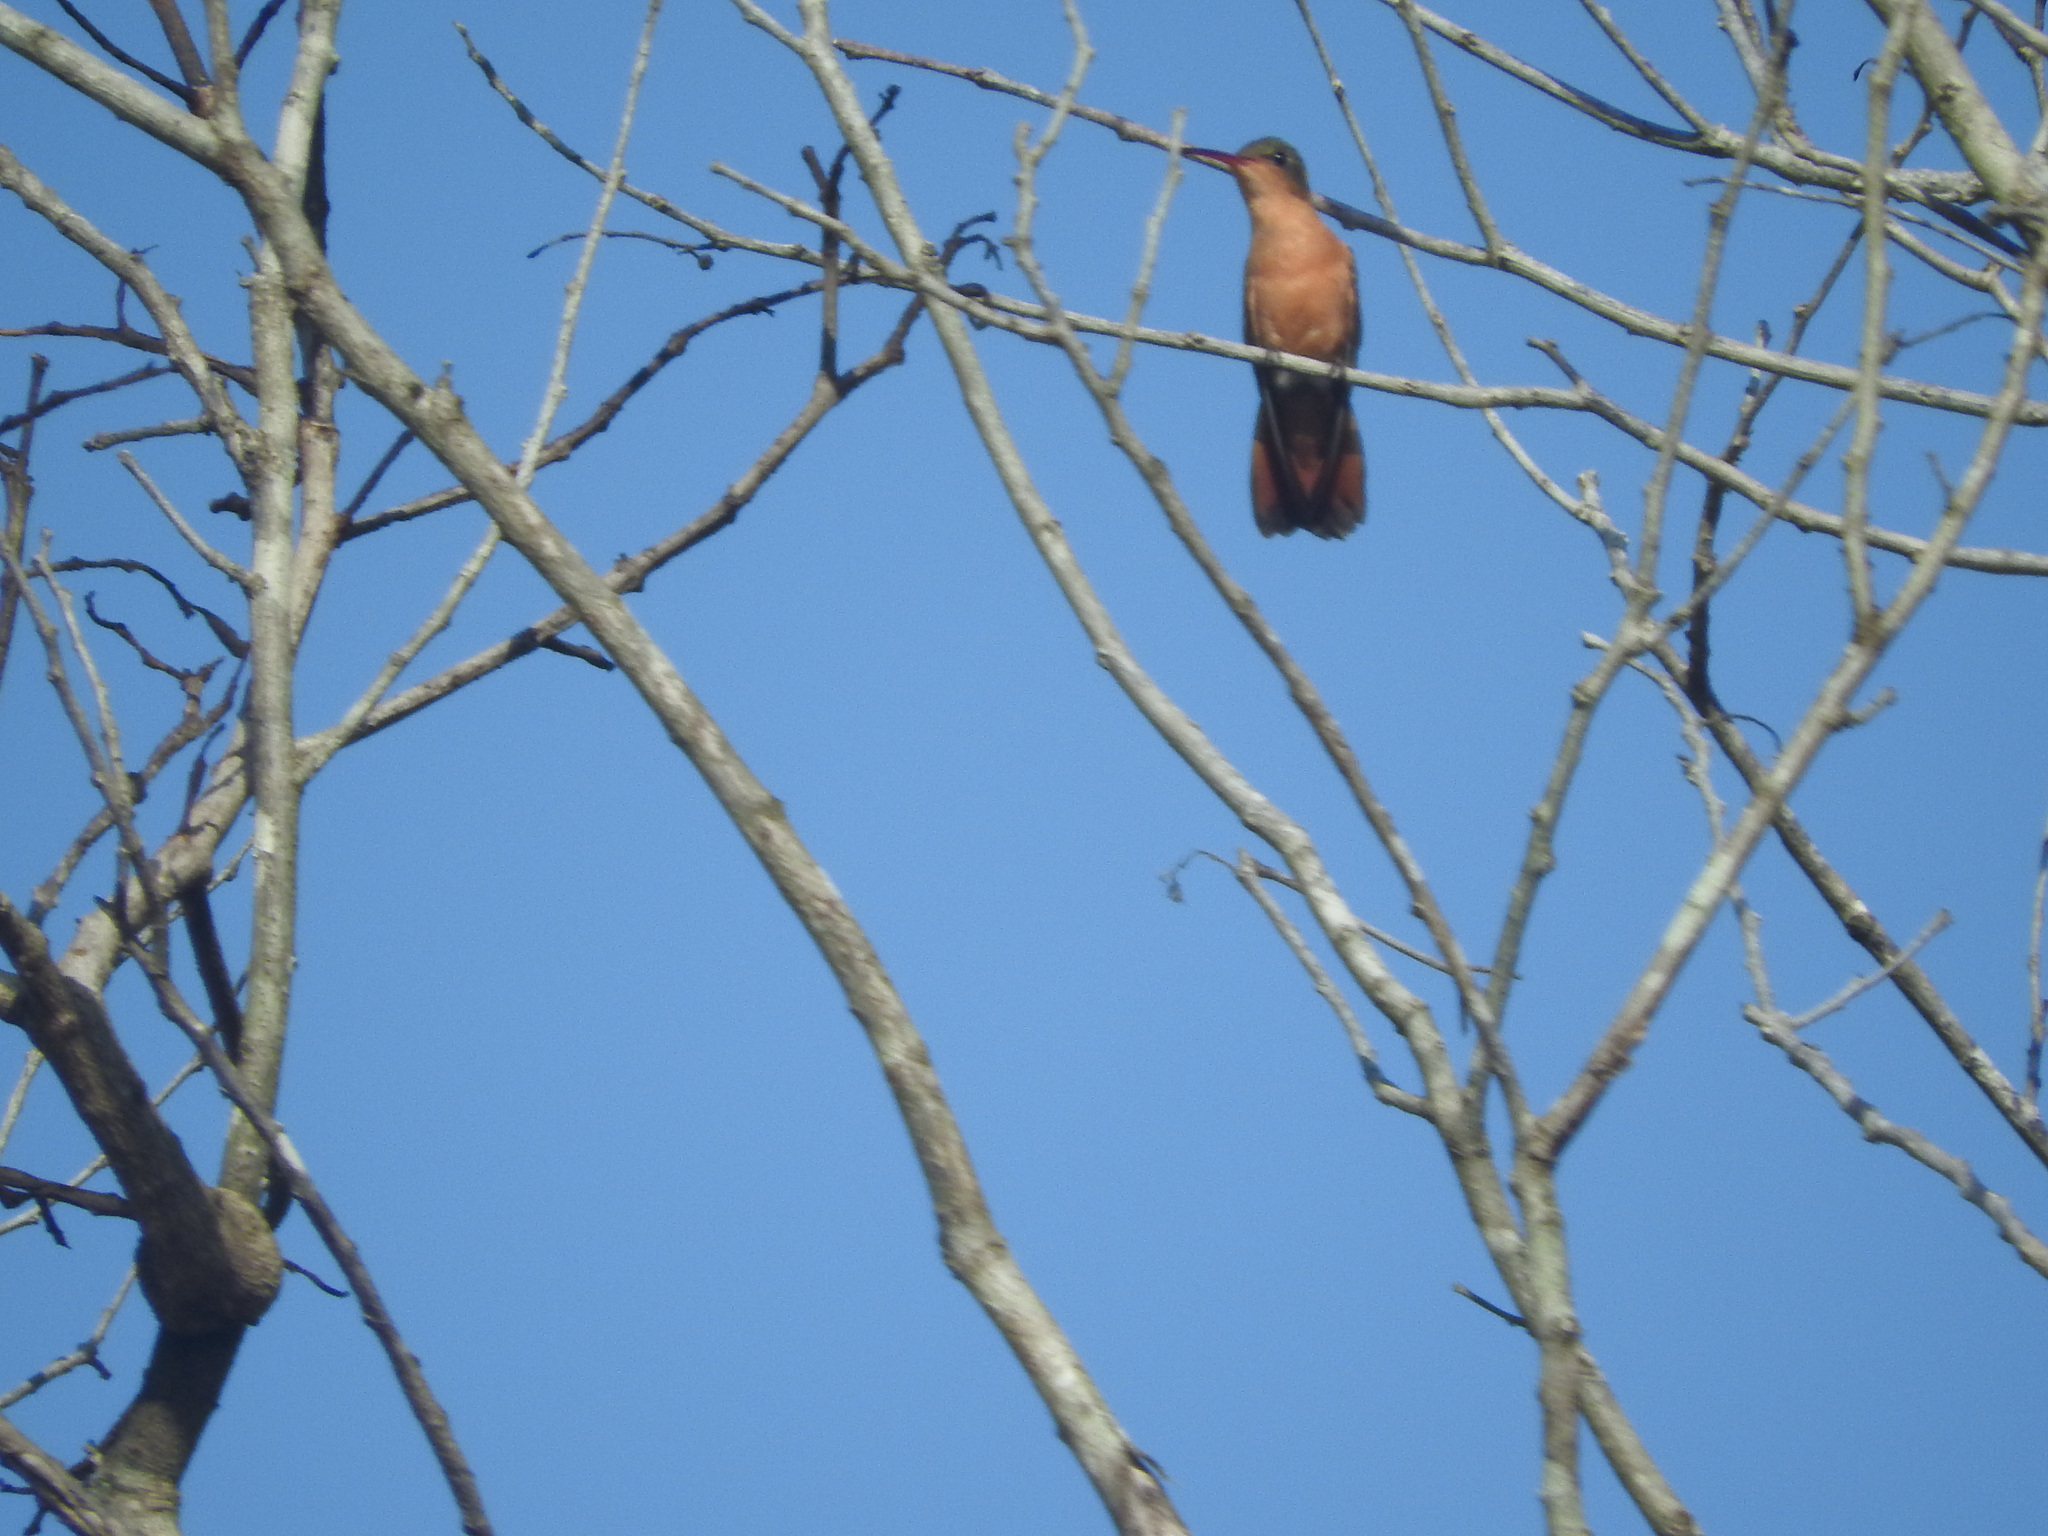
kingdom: Animalia
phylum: Chordata
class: Aves
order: Apodiformes
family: Trochilidae
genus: Amazilia
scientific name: Amazilia rutila
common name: Cinnamon hummingbird
